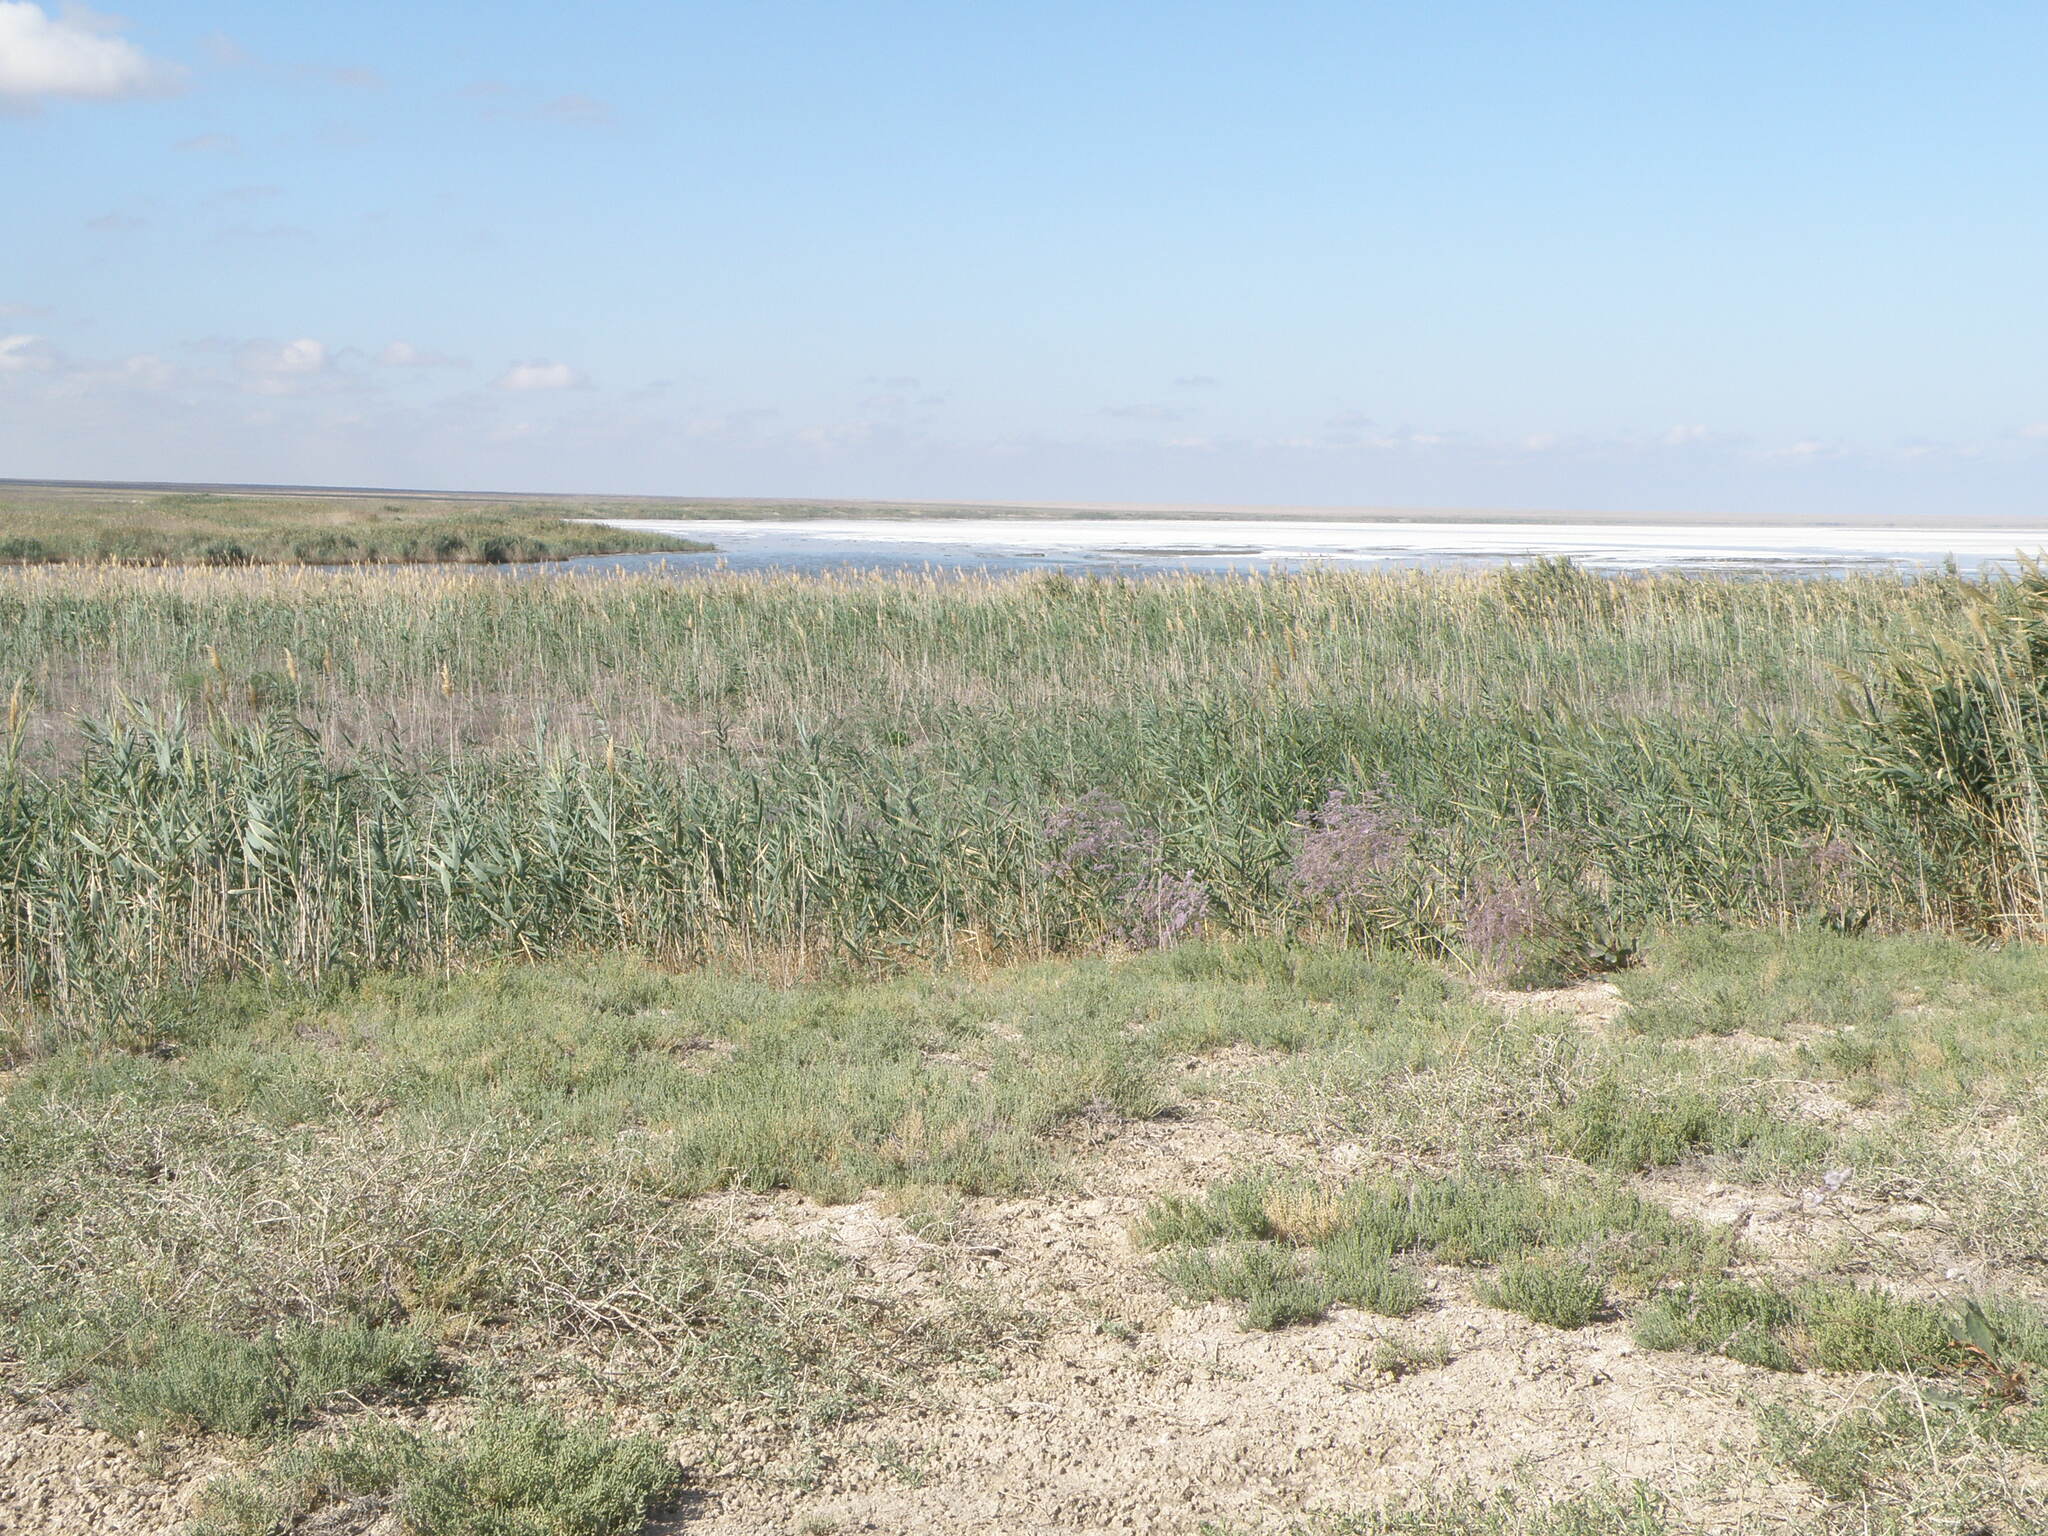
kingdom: Plantae
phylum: Tracheophyta
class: Liliopsida
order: Poales
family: Poaceae
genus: Phragmites
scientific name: Phragmites australis
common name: Common reed
